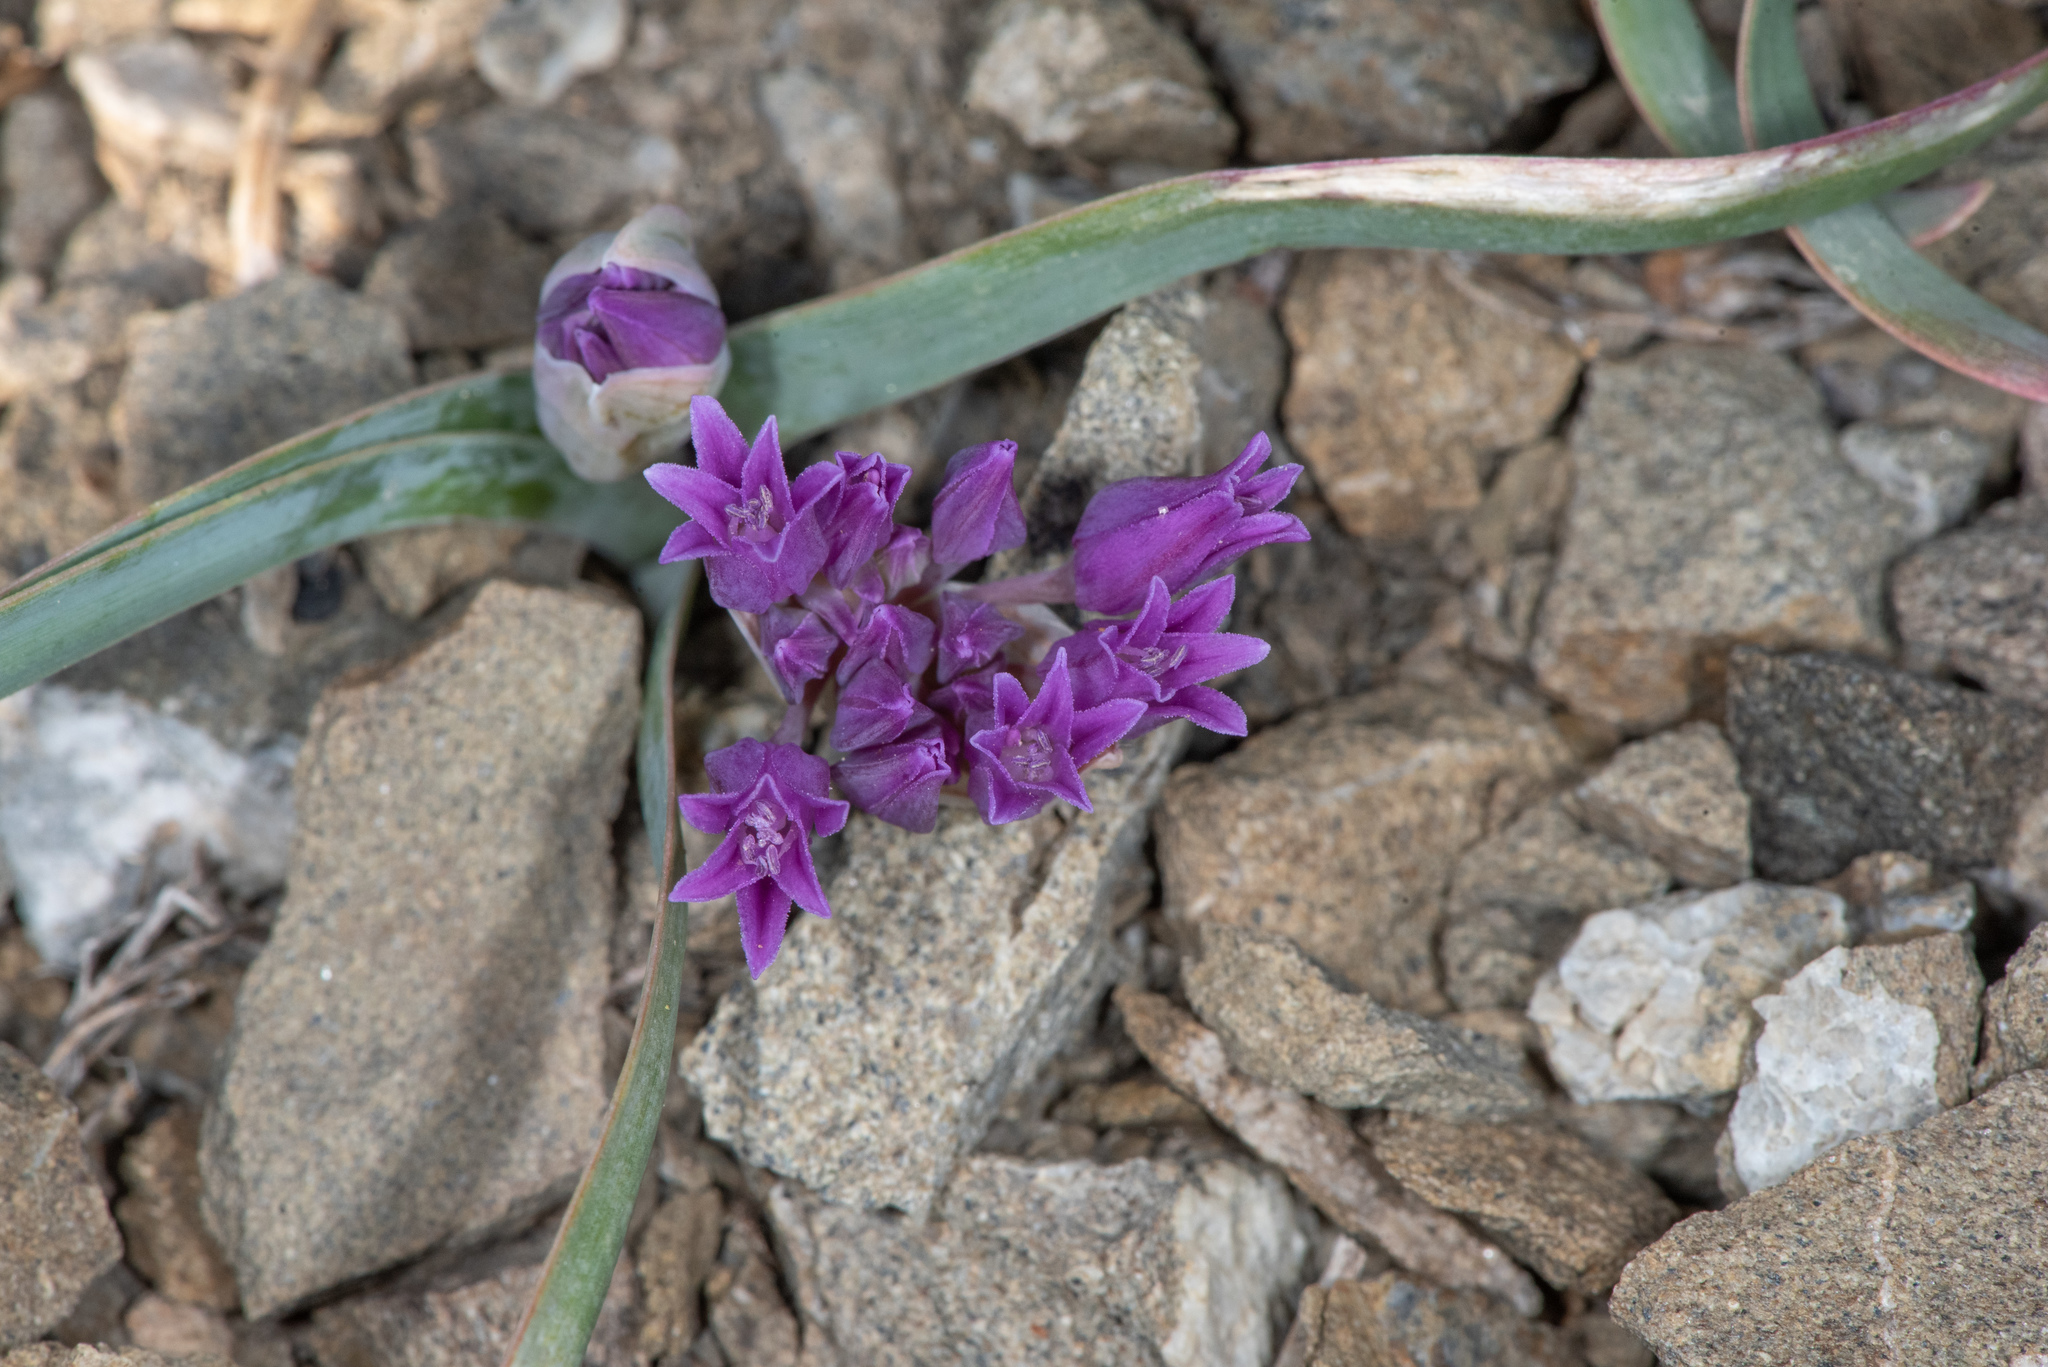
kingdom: Plantae
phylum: Tracheophyta
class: Liliopsida
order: Asparagales
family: Amaryllidaceae
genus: Allium
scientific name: Allium falcifolium
